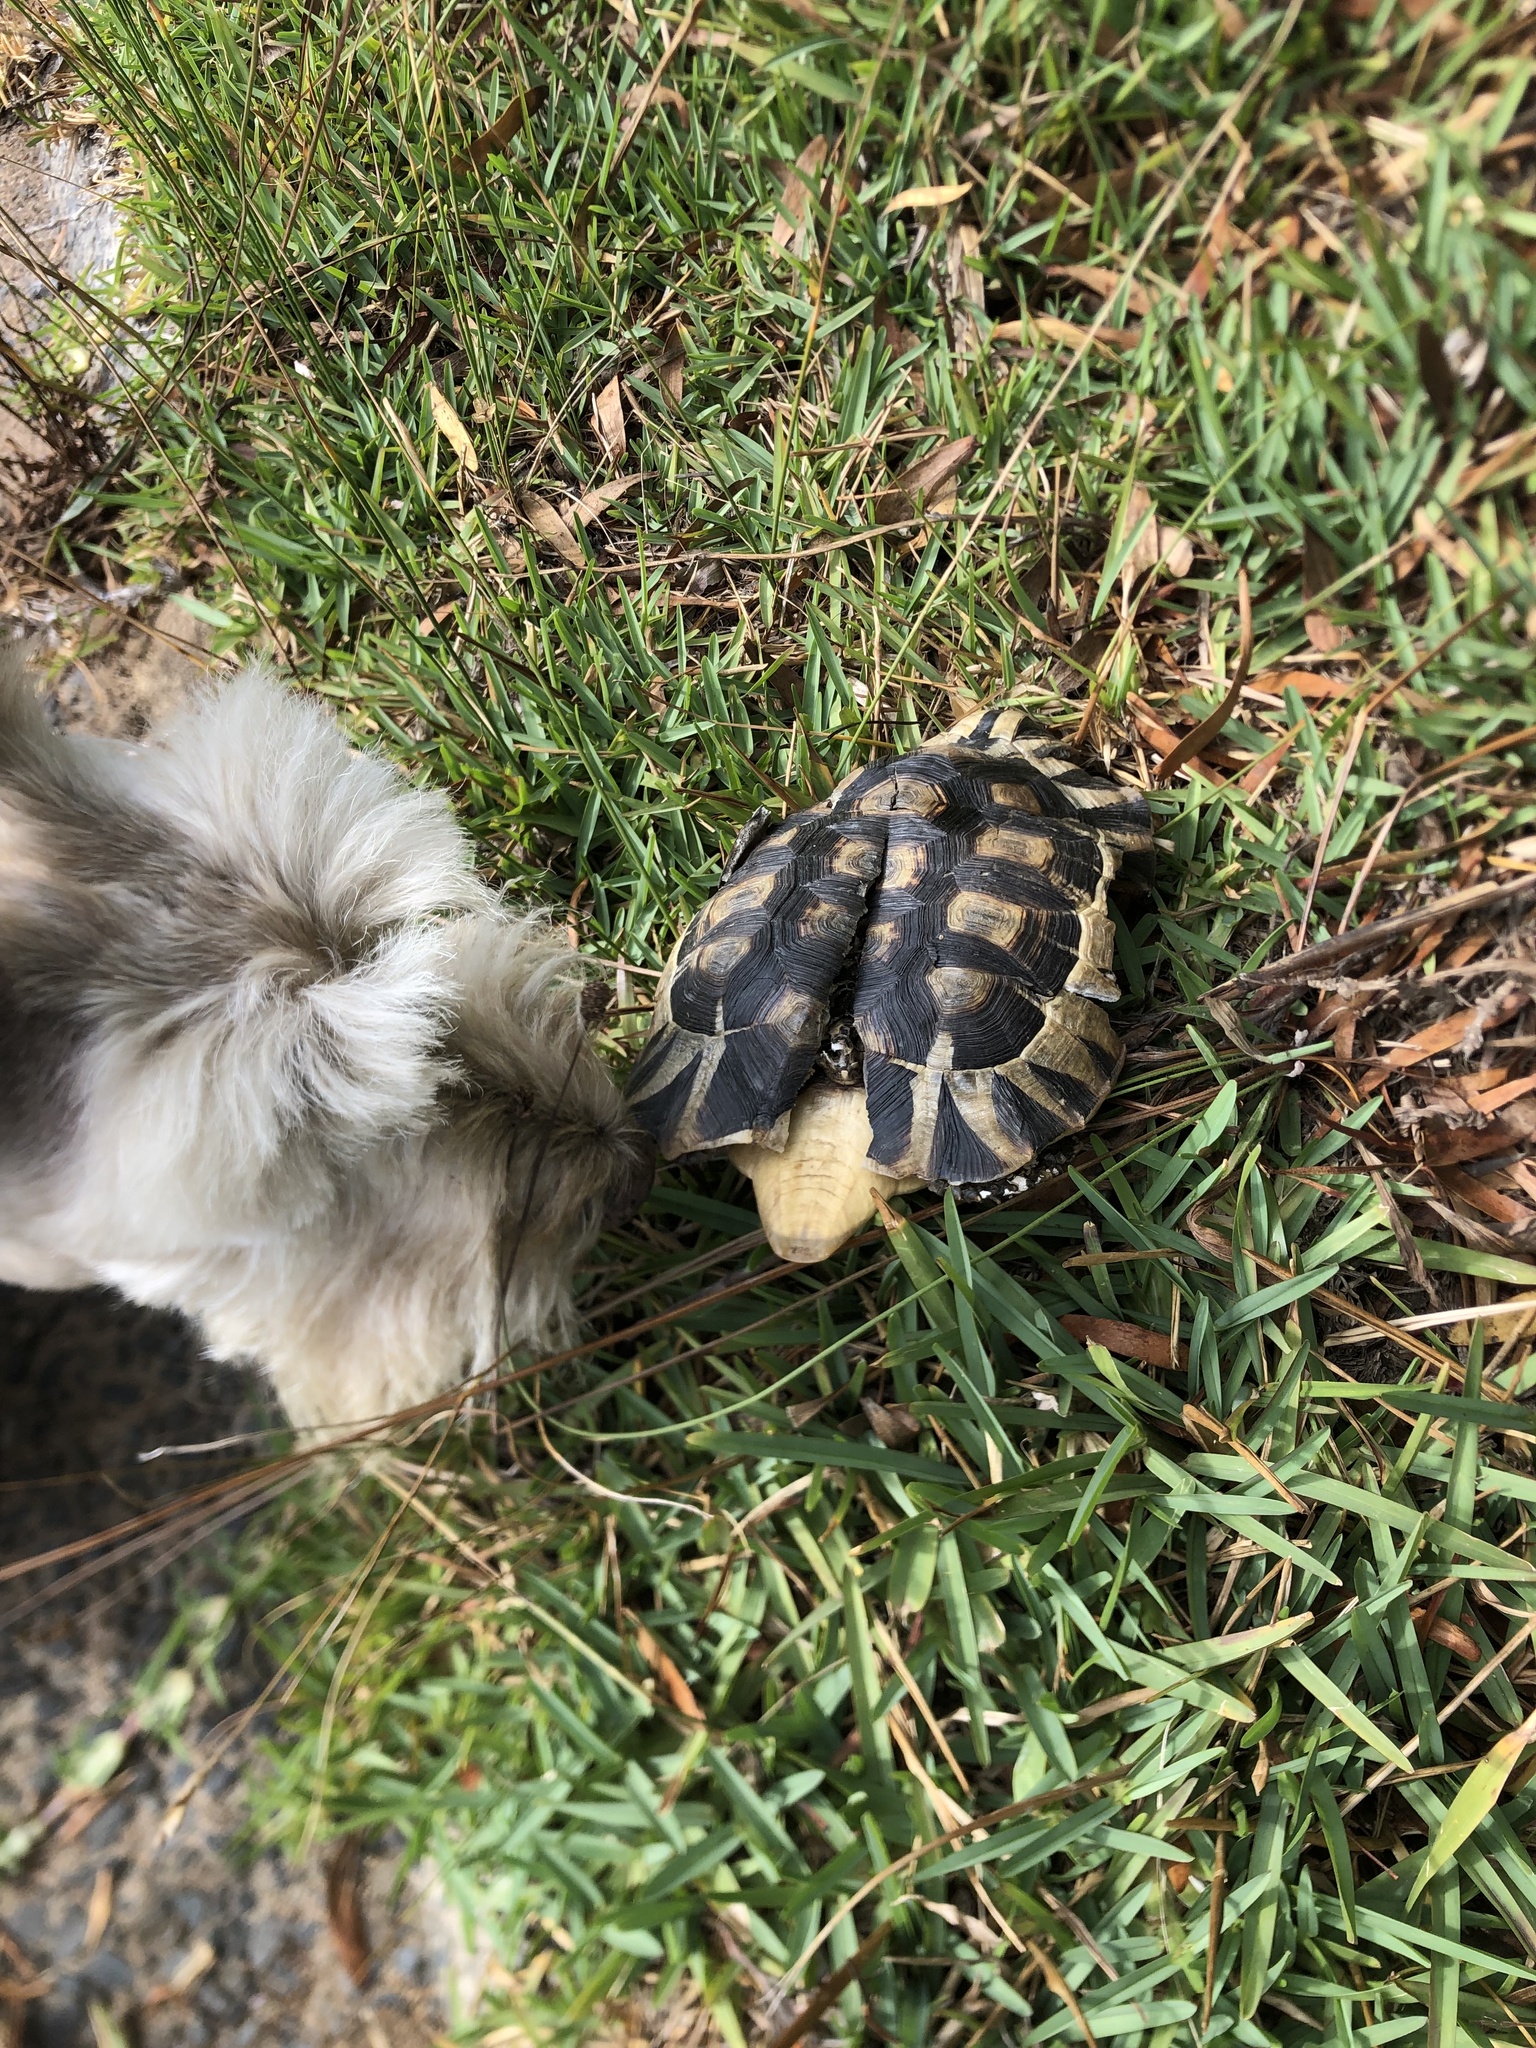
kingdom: Animalia
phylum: Chordata
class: Testudines
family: Testudinidae
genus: Chersina
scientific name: Chersina angulata
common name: South african bowsprit tortoise
